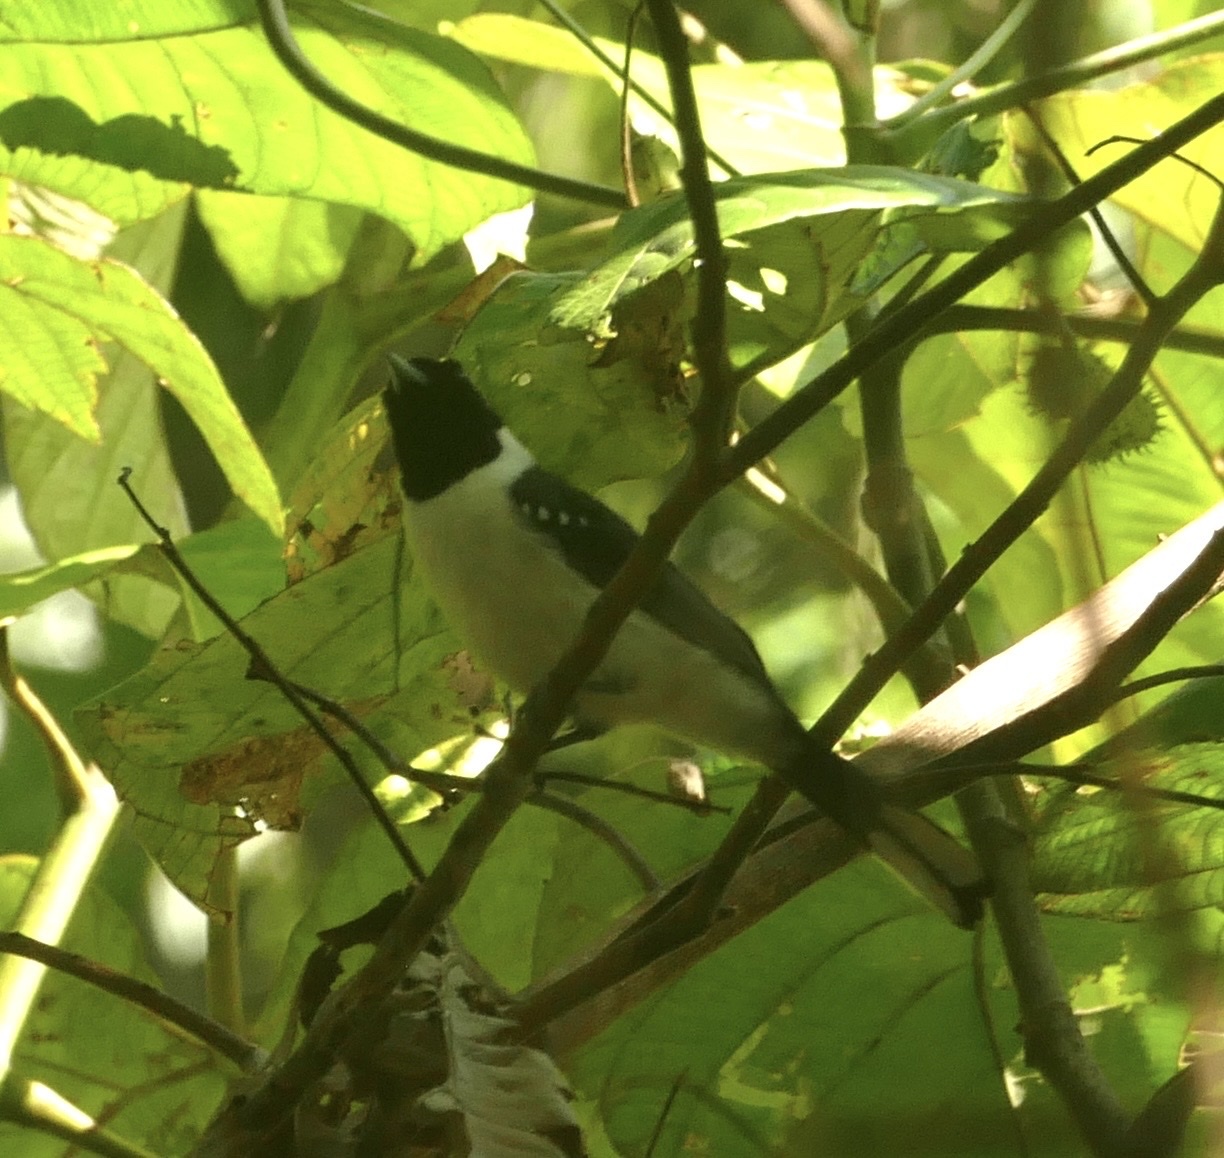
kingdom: Animalia
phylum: Chordata
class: Aves
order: Passeriformes
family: Monarchidae
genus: Symposiachrus
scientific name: Symposiachrus guttula
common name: Spot-winged monarch
